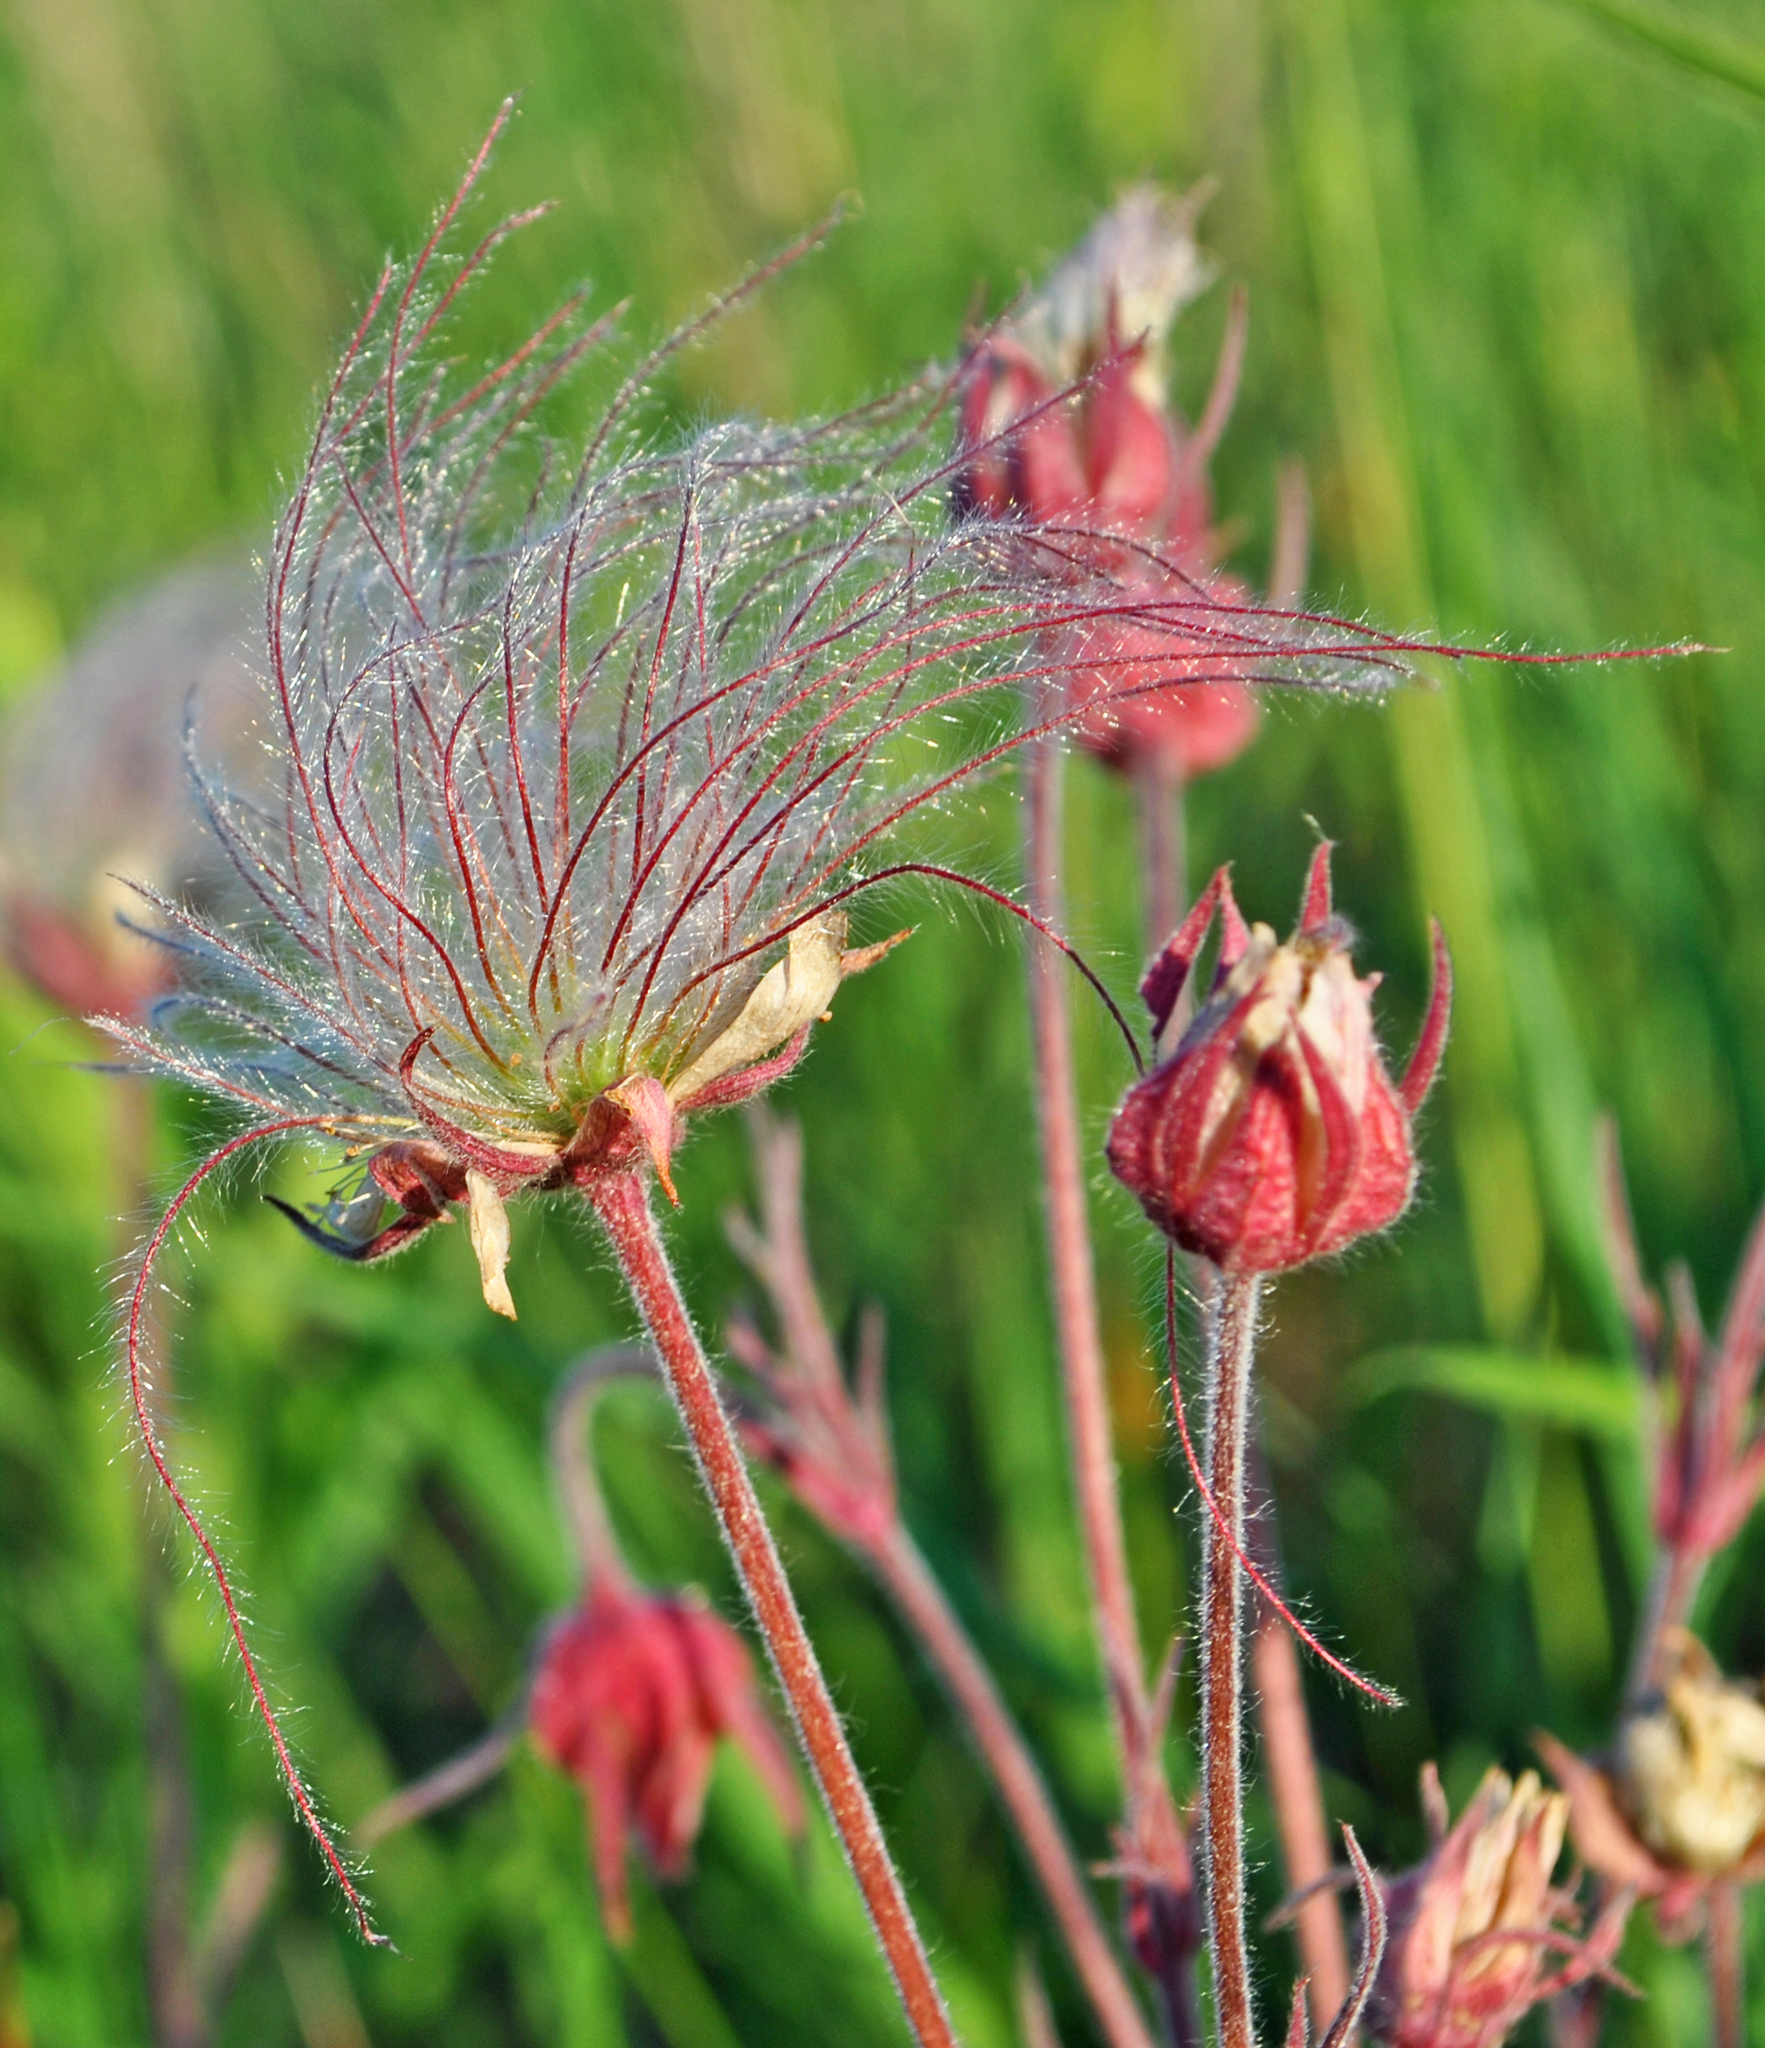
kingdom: Plantae
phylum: Tracheophyta
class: Magnoliopsida
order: Rosales
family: Rosaceae
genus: Geum
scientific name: Geum triflorum
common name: Old man's whiskers
